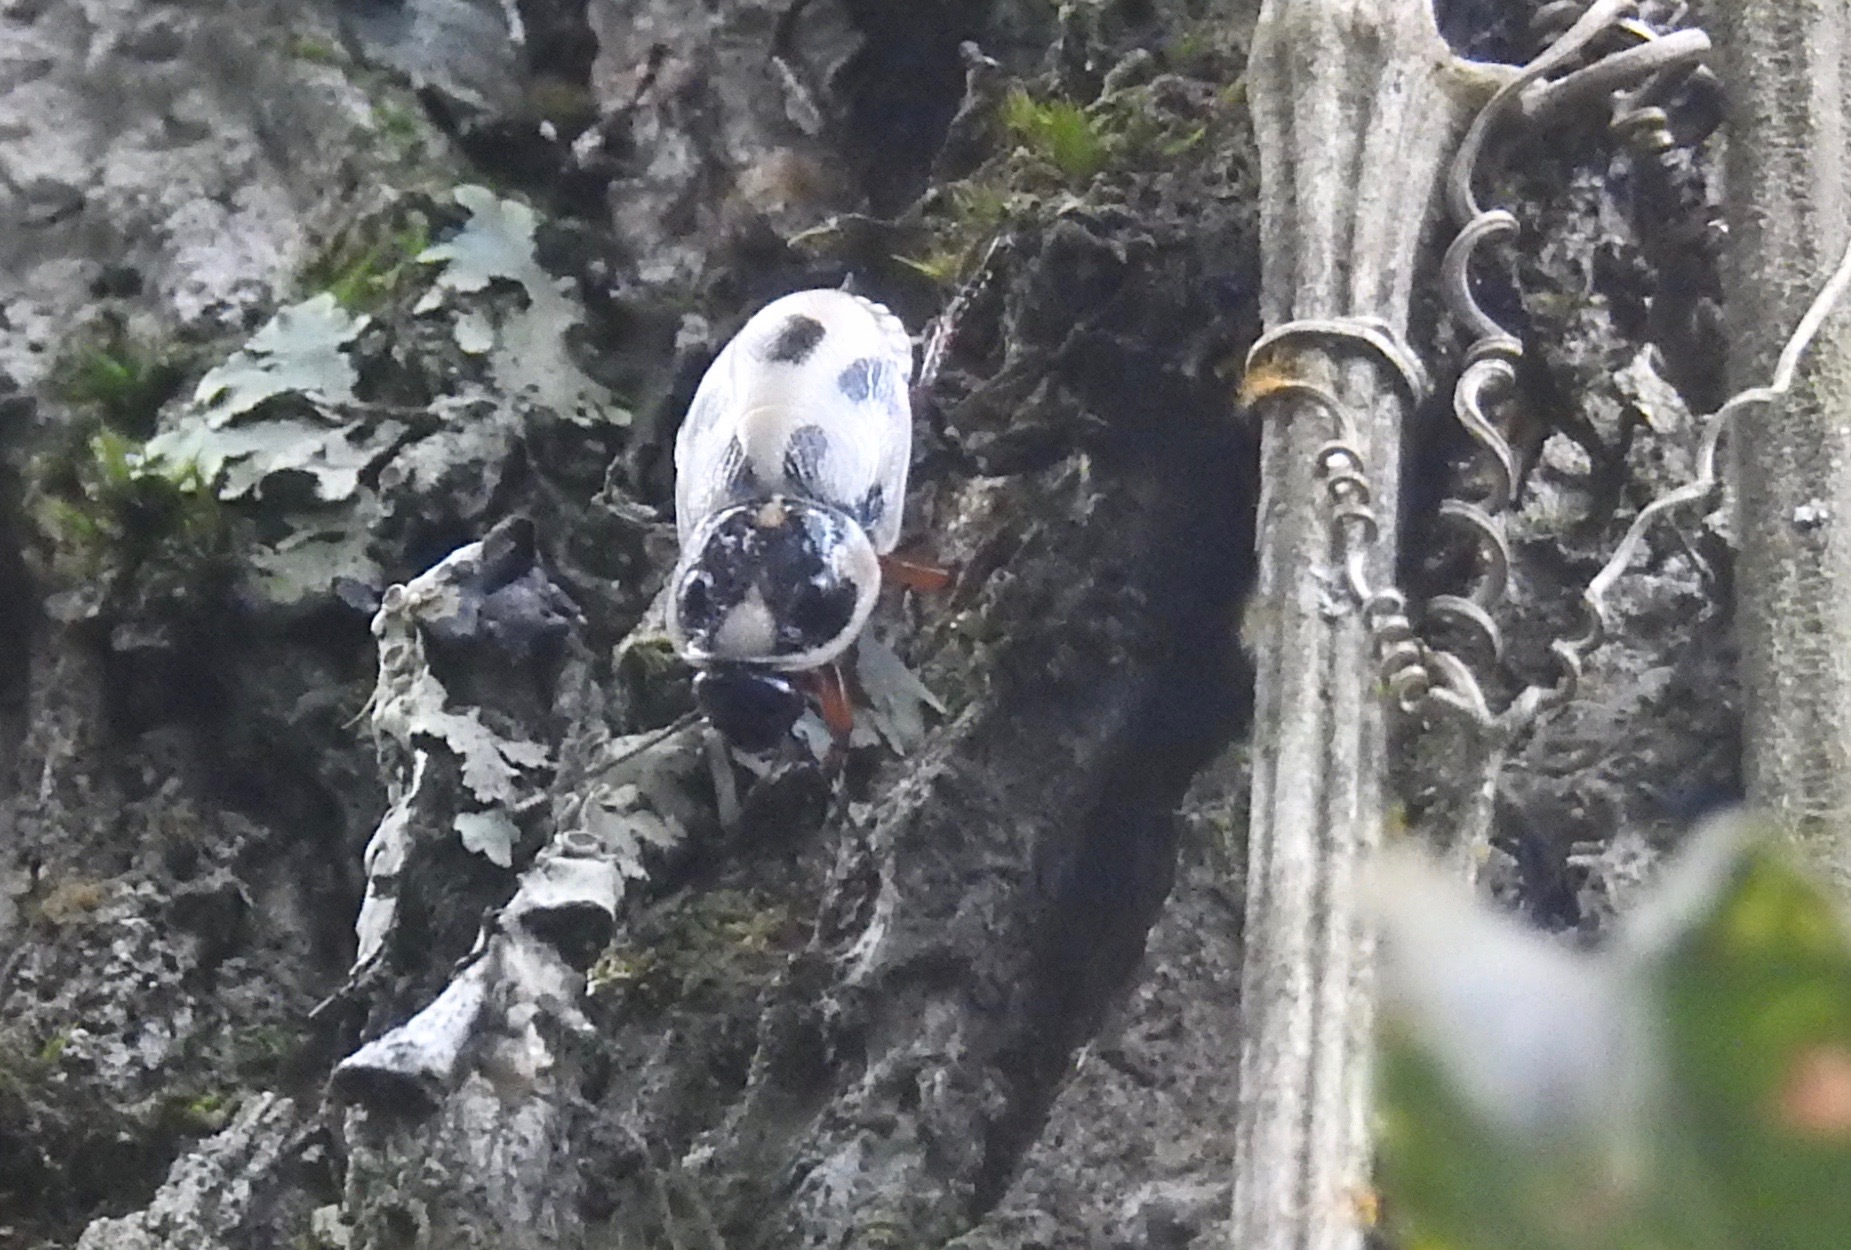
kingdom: Animalia
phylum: Arthropoda
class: Insecta
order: Blattodea
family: Blaberidae
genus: Hormetica
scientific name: Hormetica sexnotata
